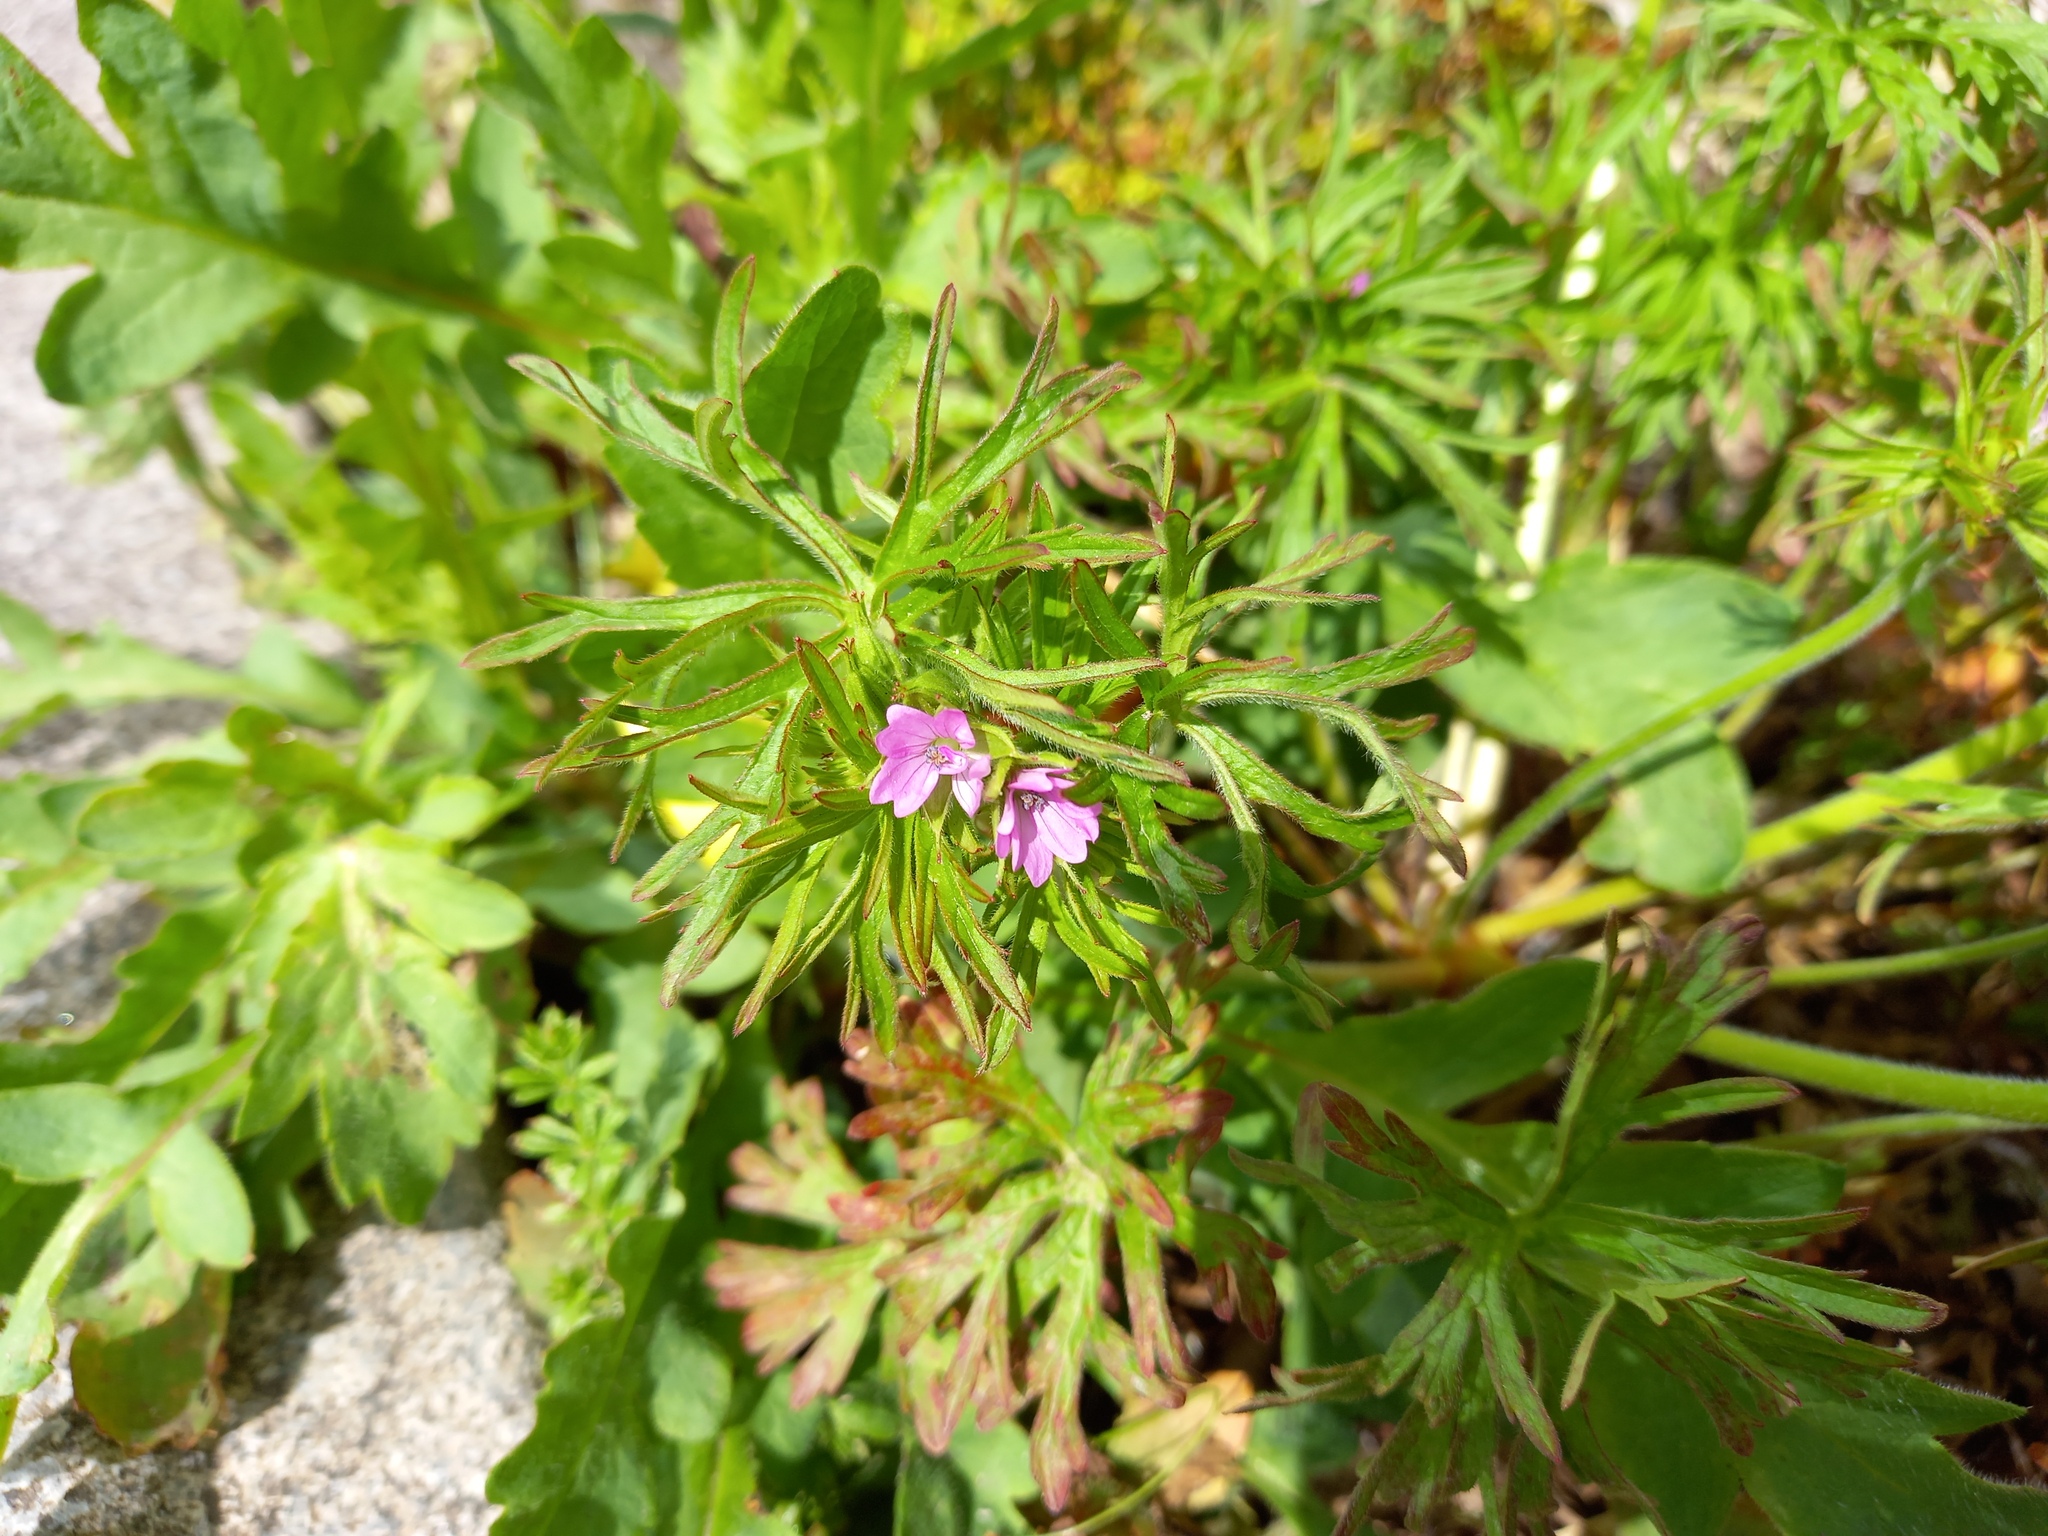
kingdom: Plantae
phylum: Tracheophyta
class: Magnoliopsida
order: Geraniales
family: Geraniaceae
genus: Geranium
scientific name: Geranium dissectum
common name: Cut-leaved crane's-bill
